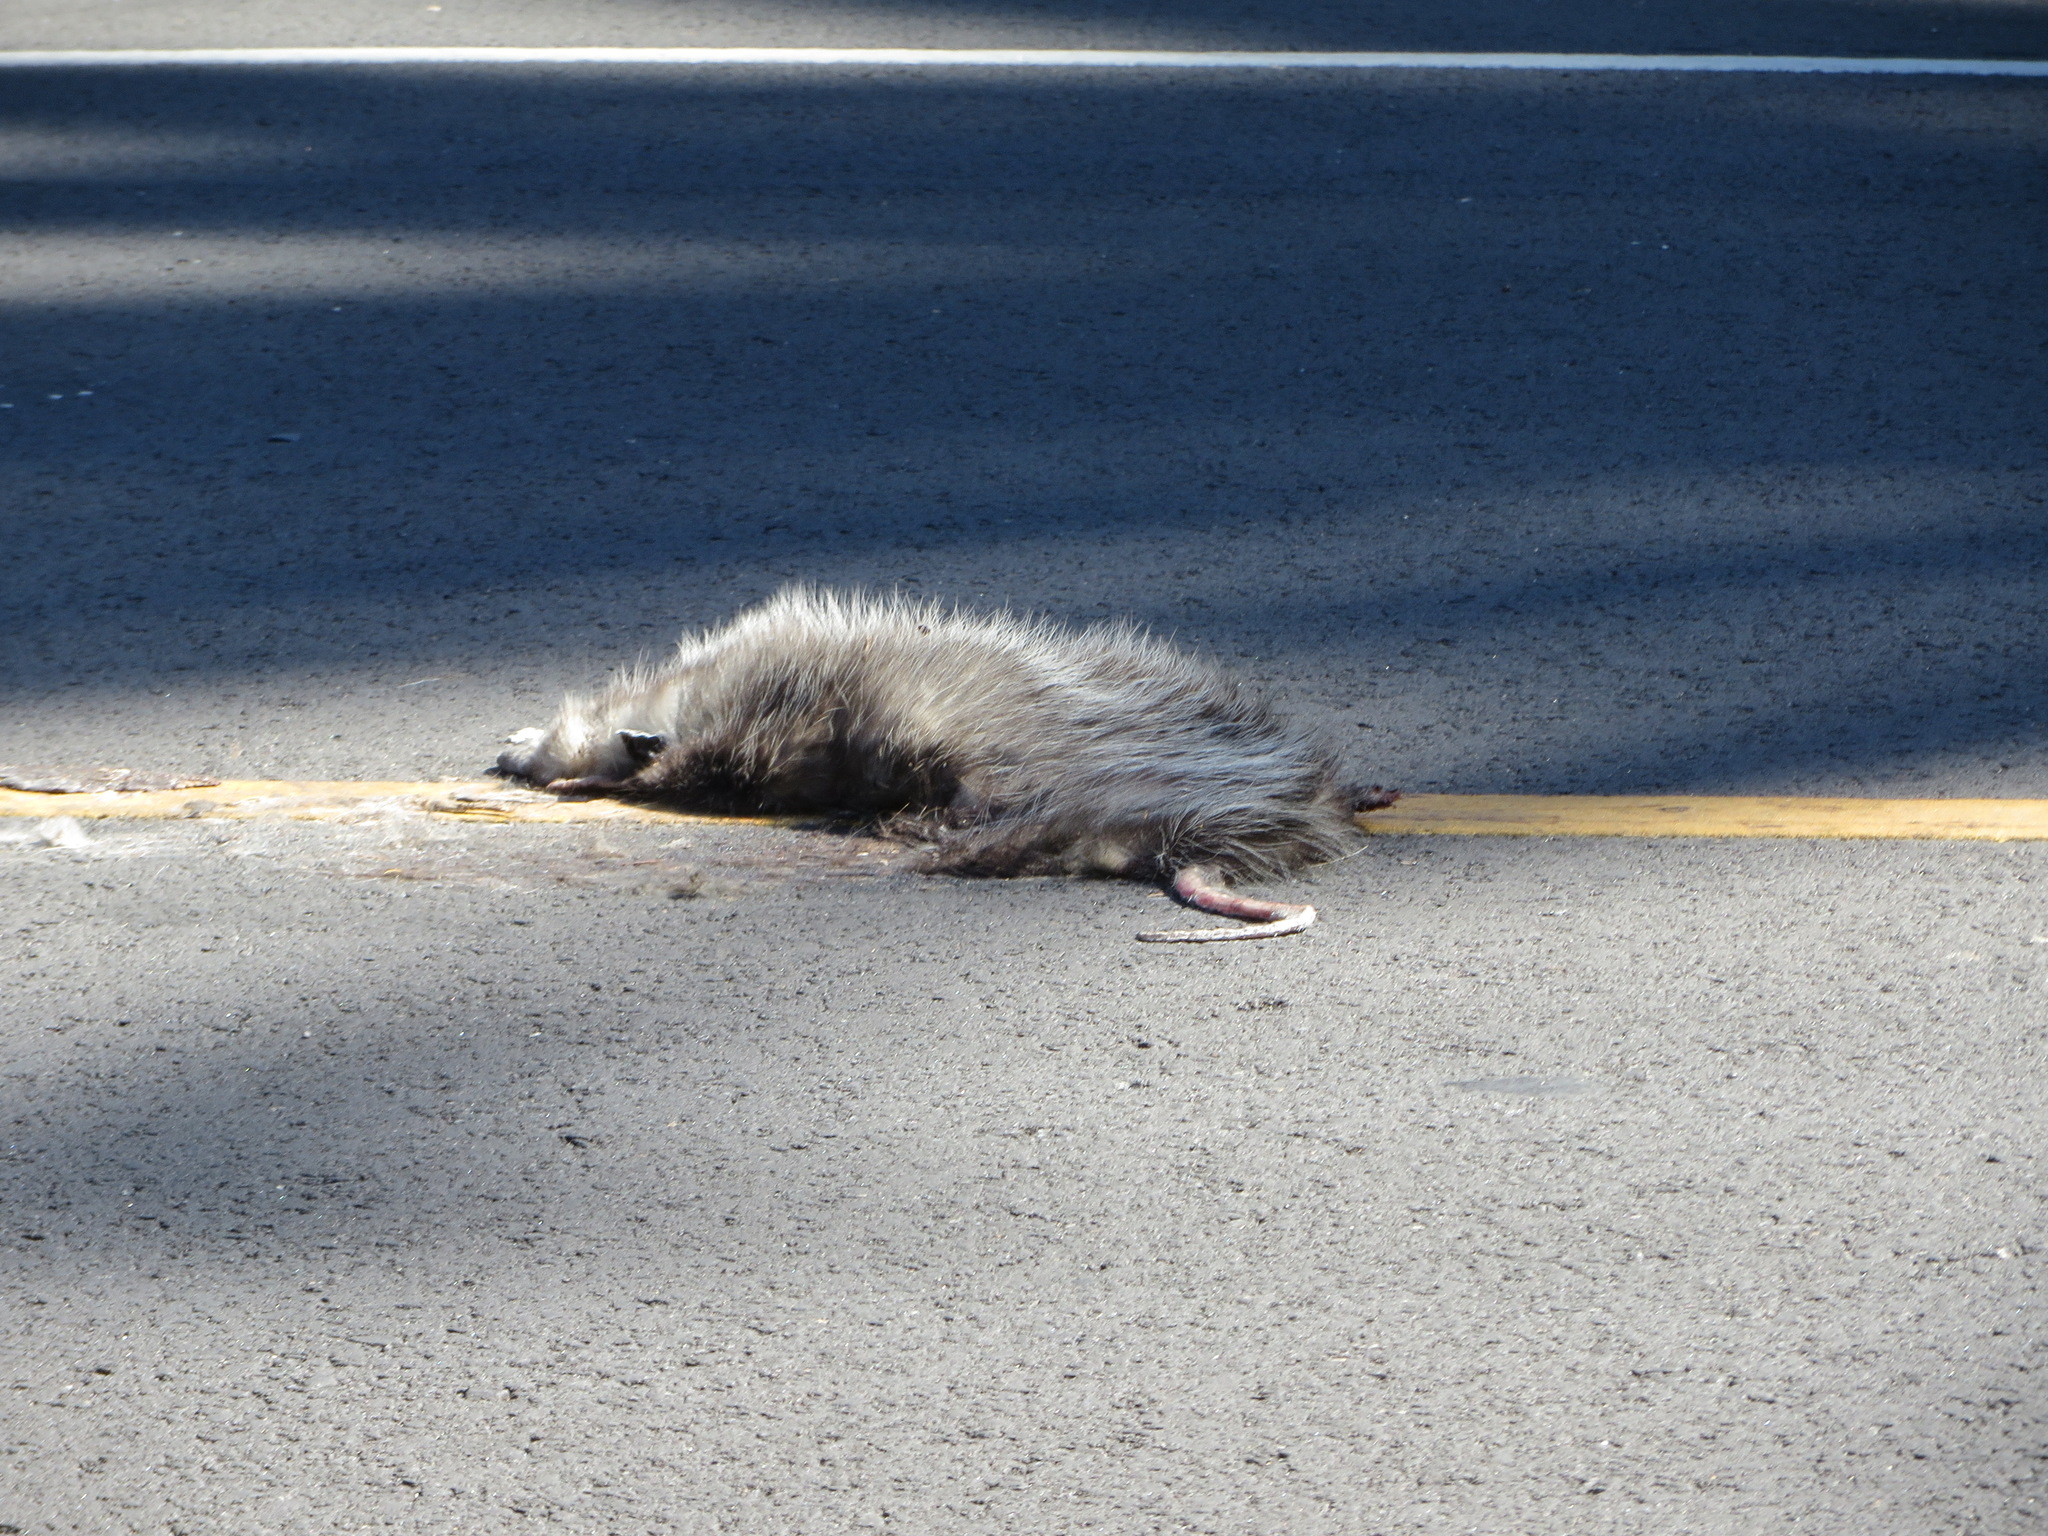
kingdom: Animalia
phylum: Chordata
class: Mammalia
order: Didelphimorphia
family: Didelphidae
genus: Didelphis
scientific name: Didelphis virginiana
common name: Virginia opossum
